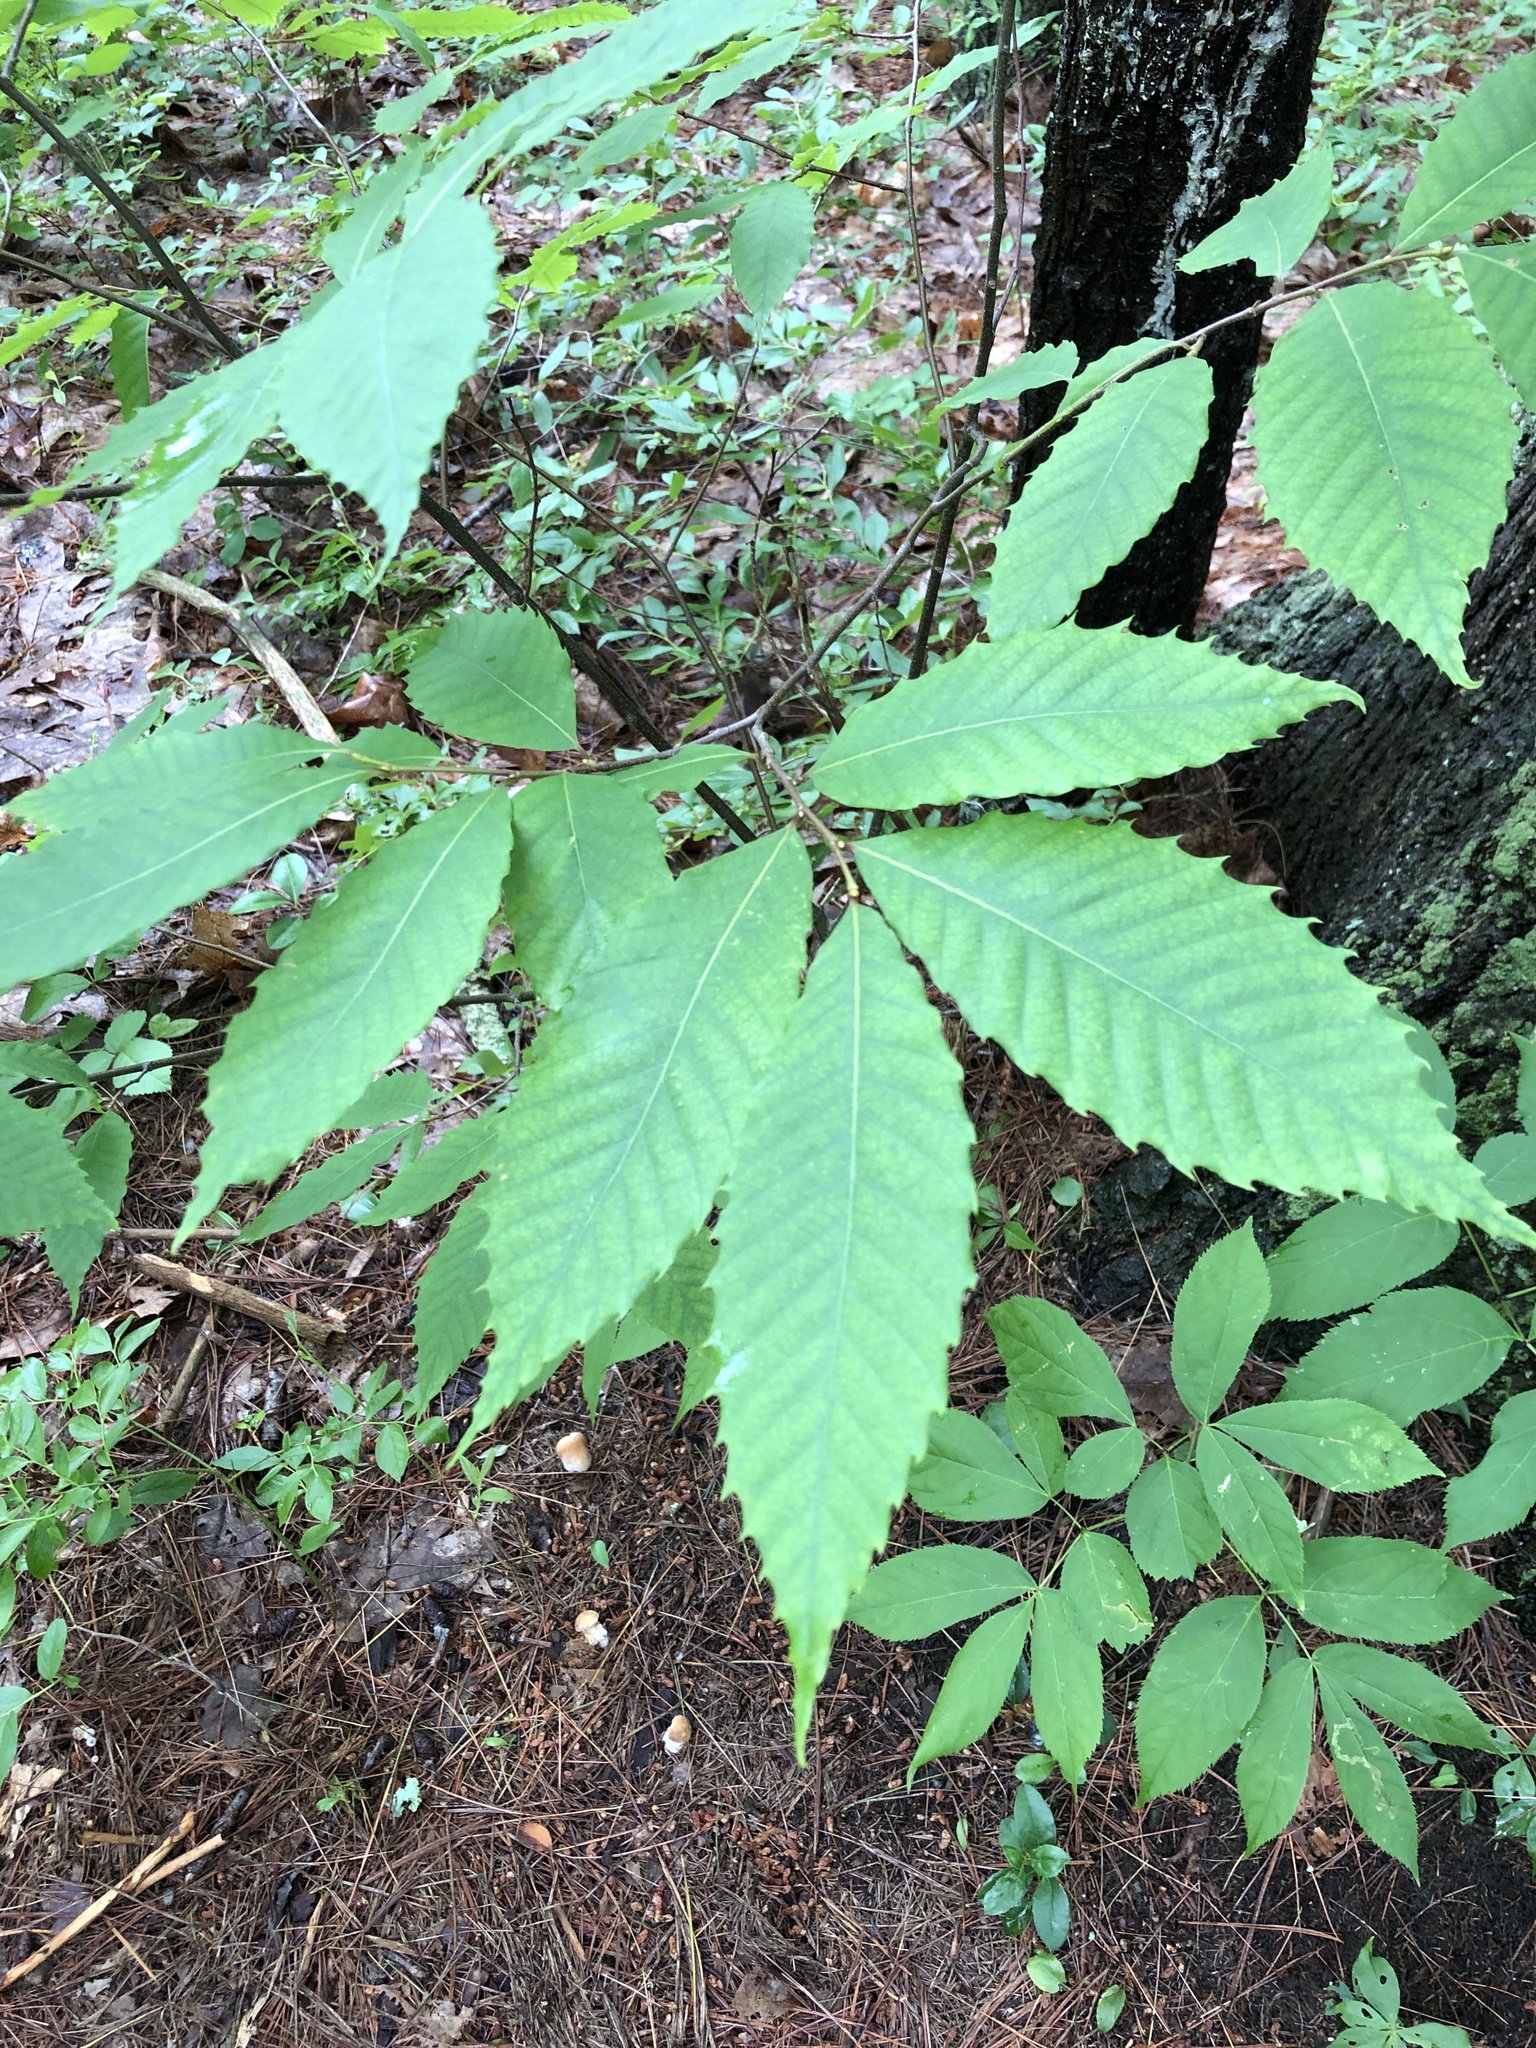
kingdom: Plantae
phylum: Tracheophyta
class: Magnoliopsida
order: Fagales
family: Fagaceae
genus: Castanea
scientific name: Castanea dentata
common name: American chestnut
